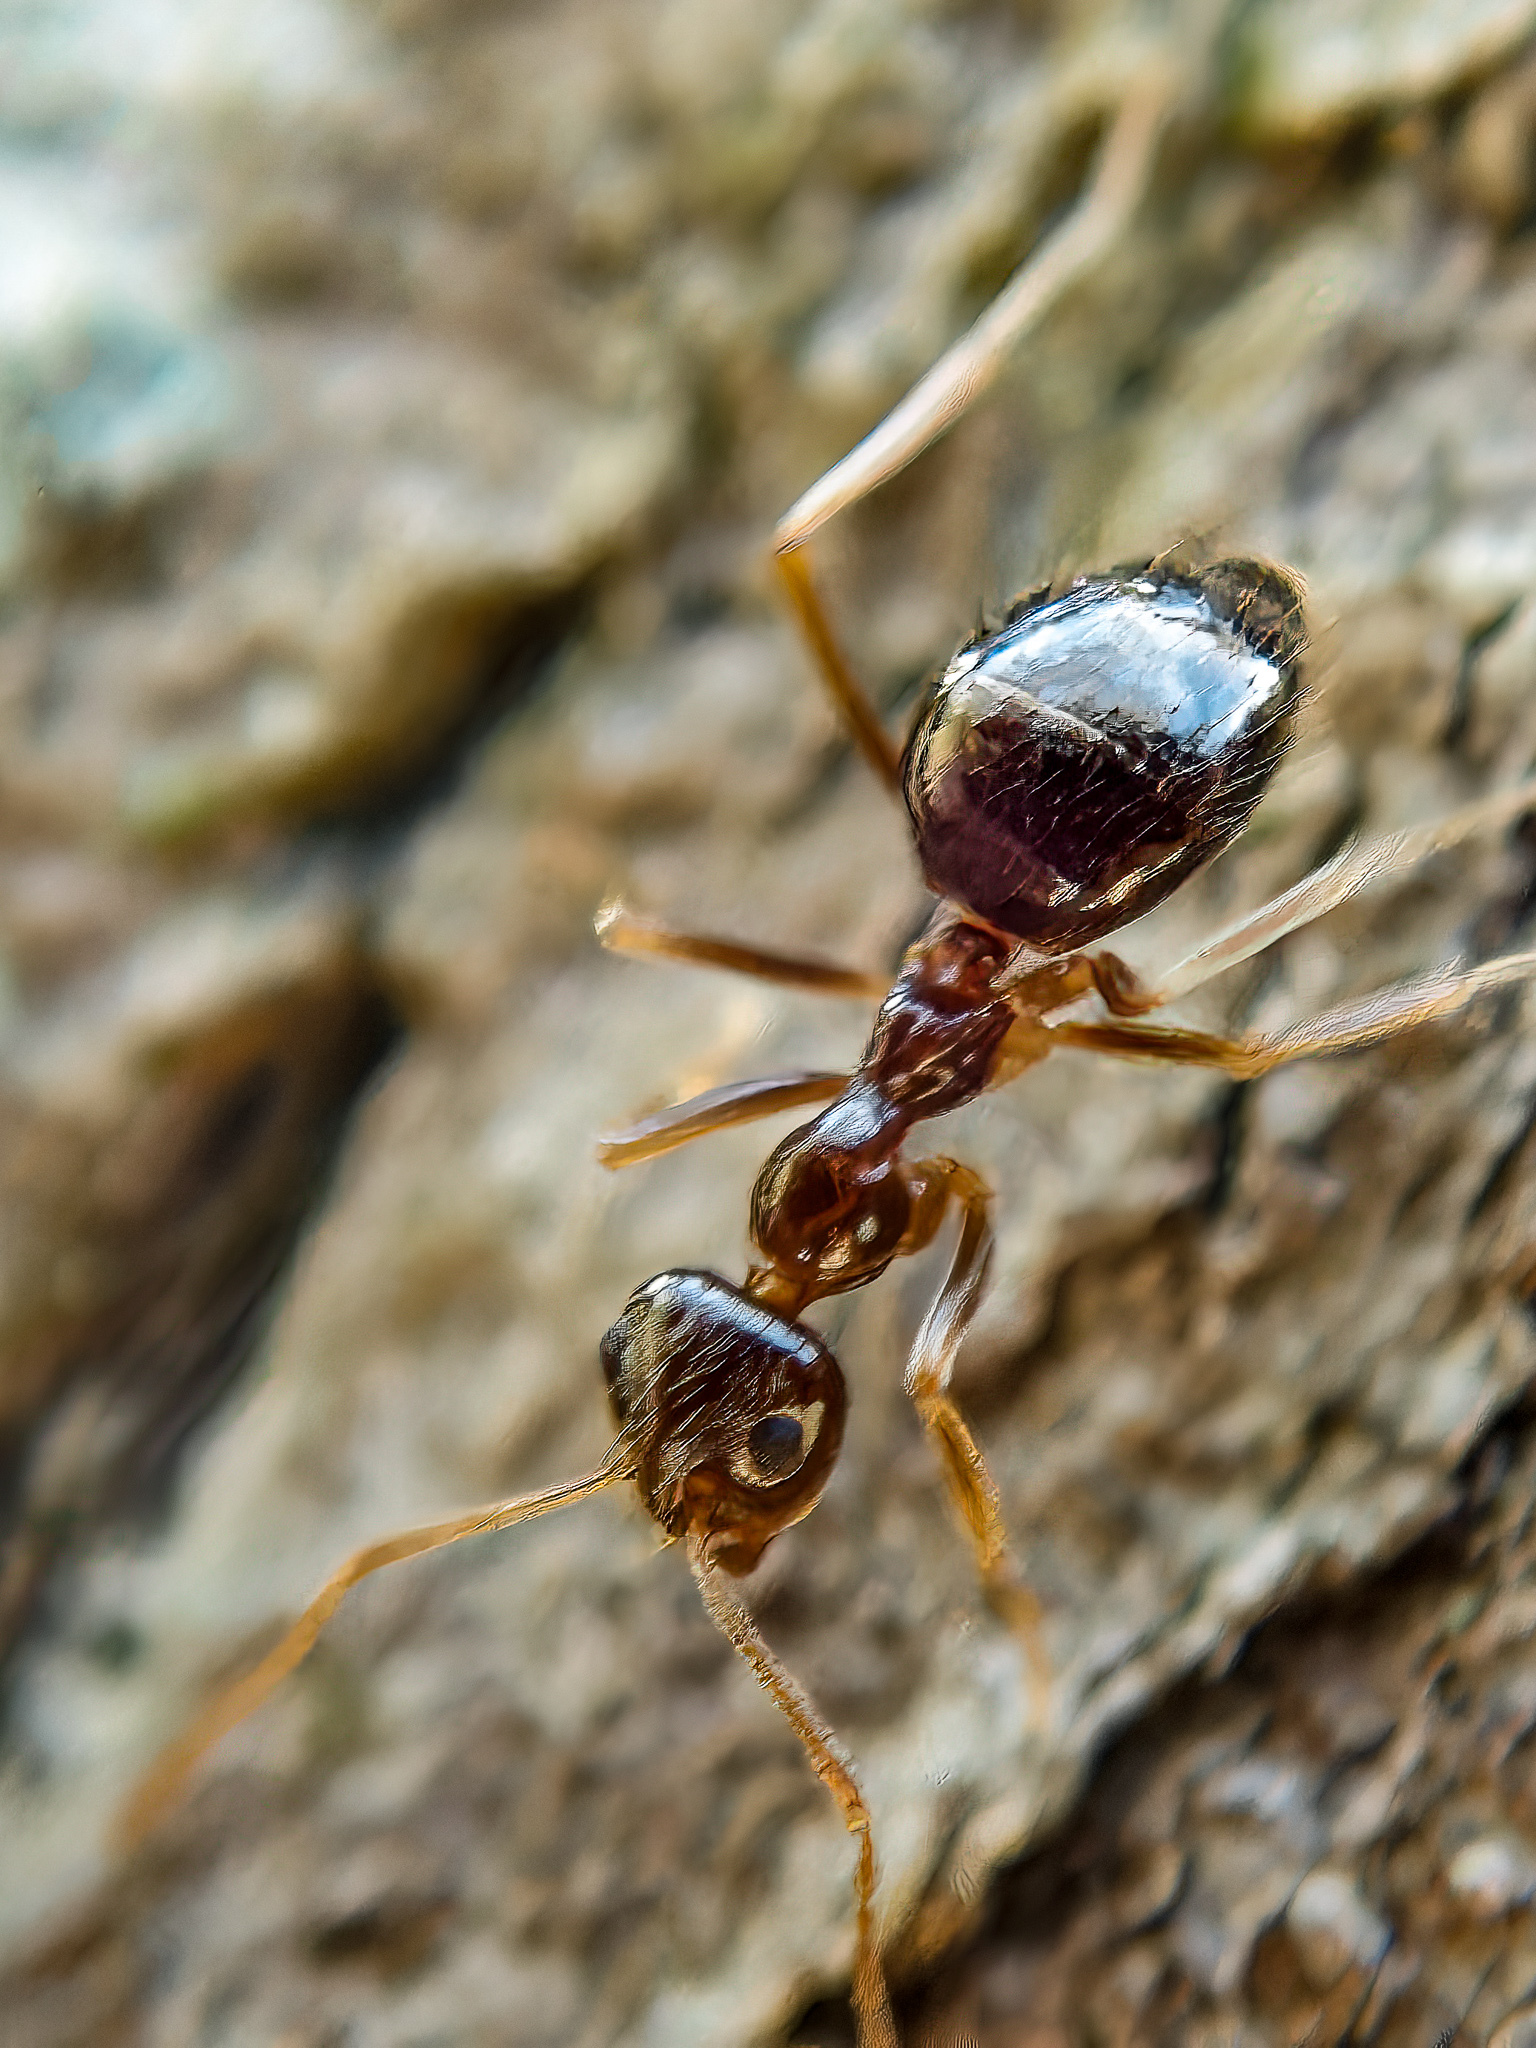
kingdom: Animalia
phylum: Arthropoda
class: Insecta
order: Hymenoptera
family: Formicidae
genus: Prenolepis
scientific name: Prenolepis imparis
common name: Small honey ant
